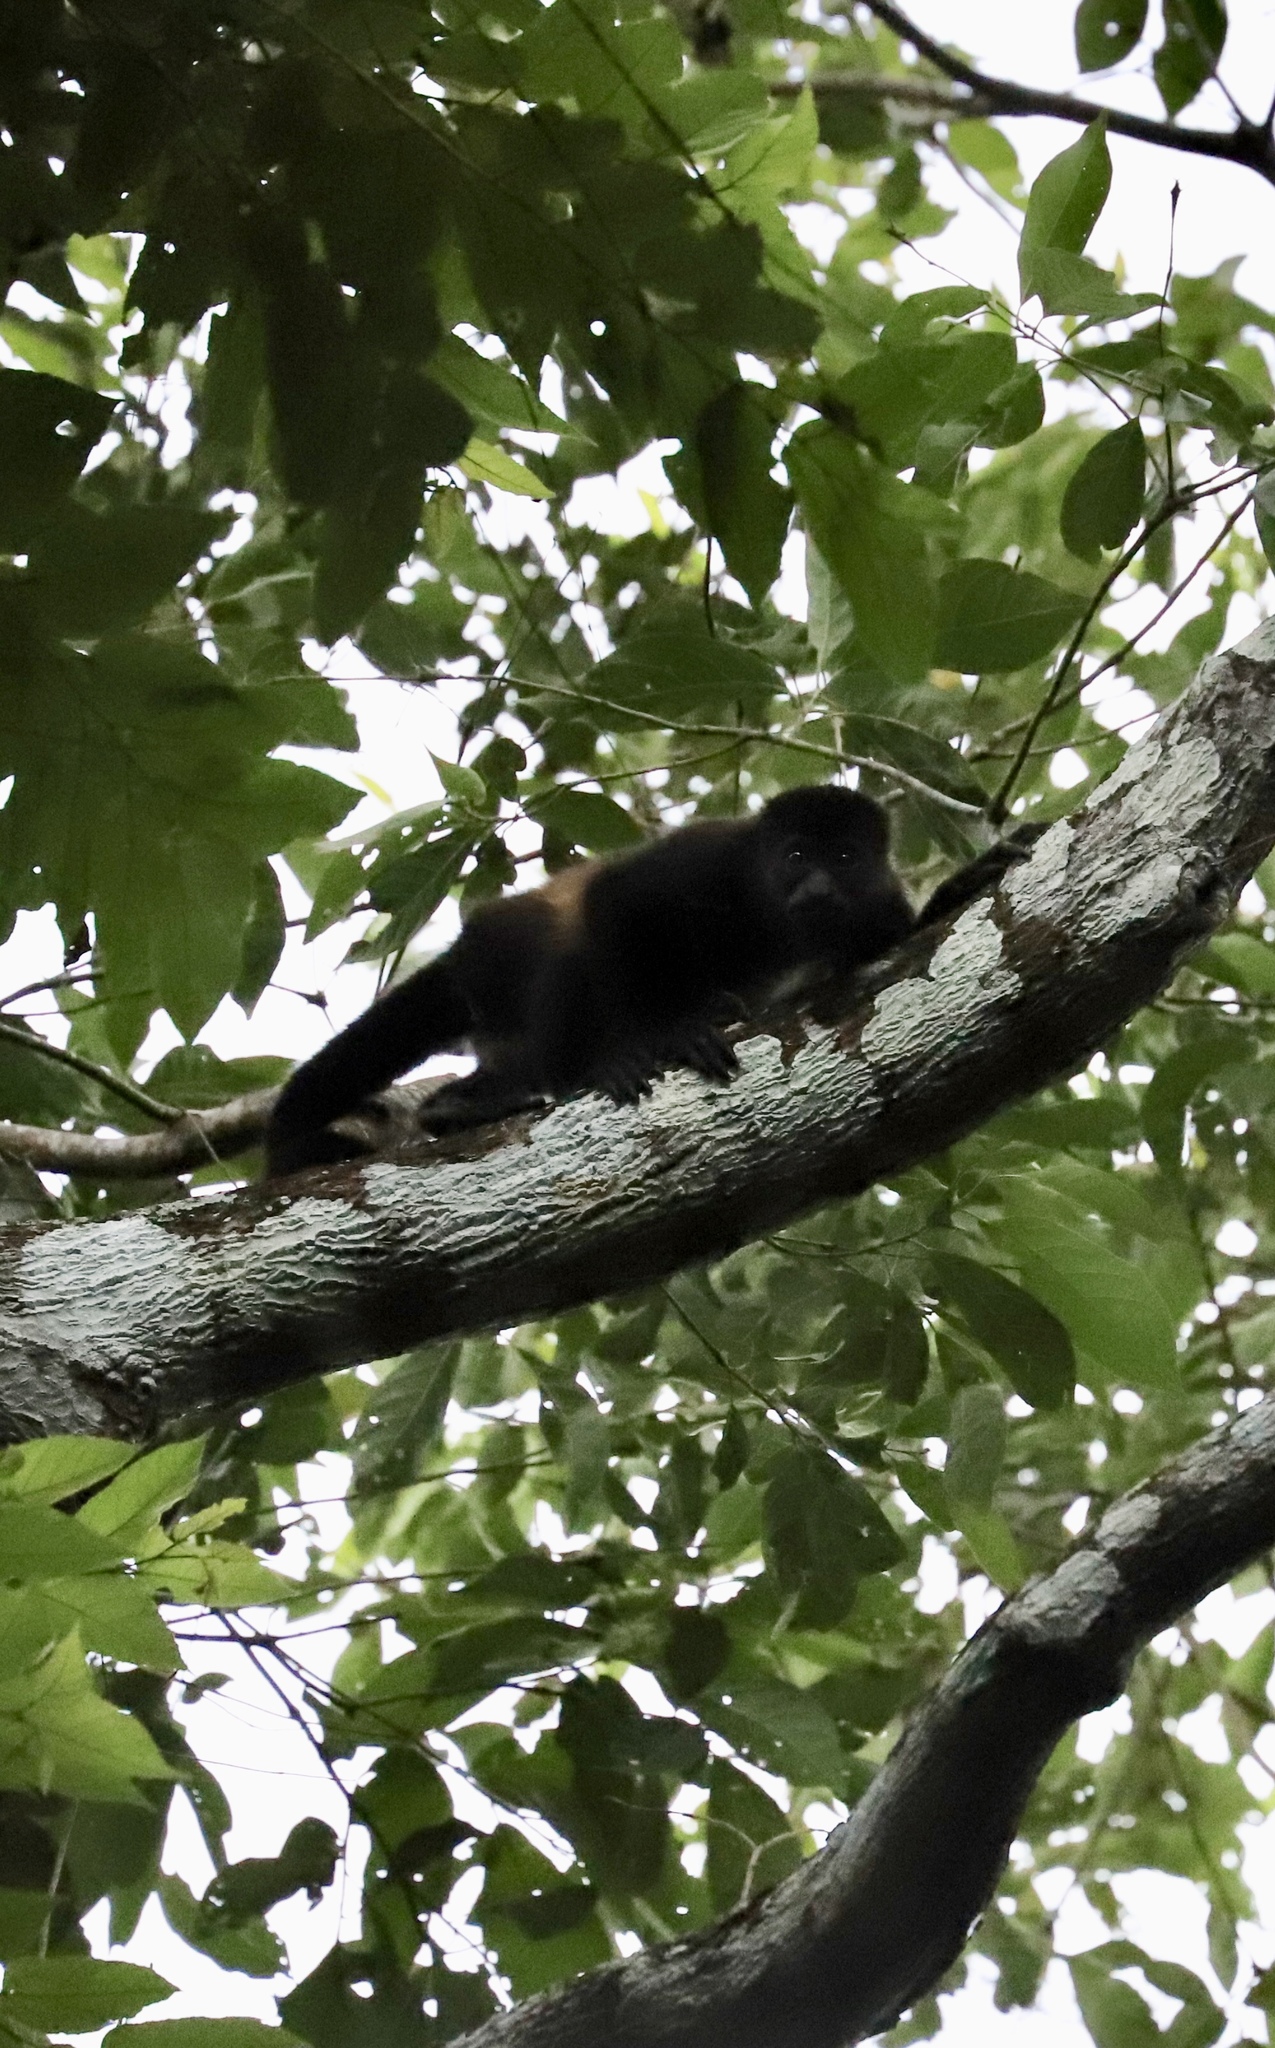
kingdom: Animalia
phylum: Chordata
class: Mammalia
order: Primates
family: Atelidae
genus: Alouatta
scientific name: Alouatta palliata
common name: Mantled howler
